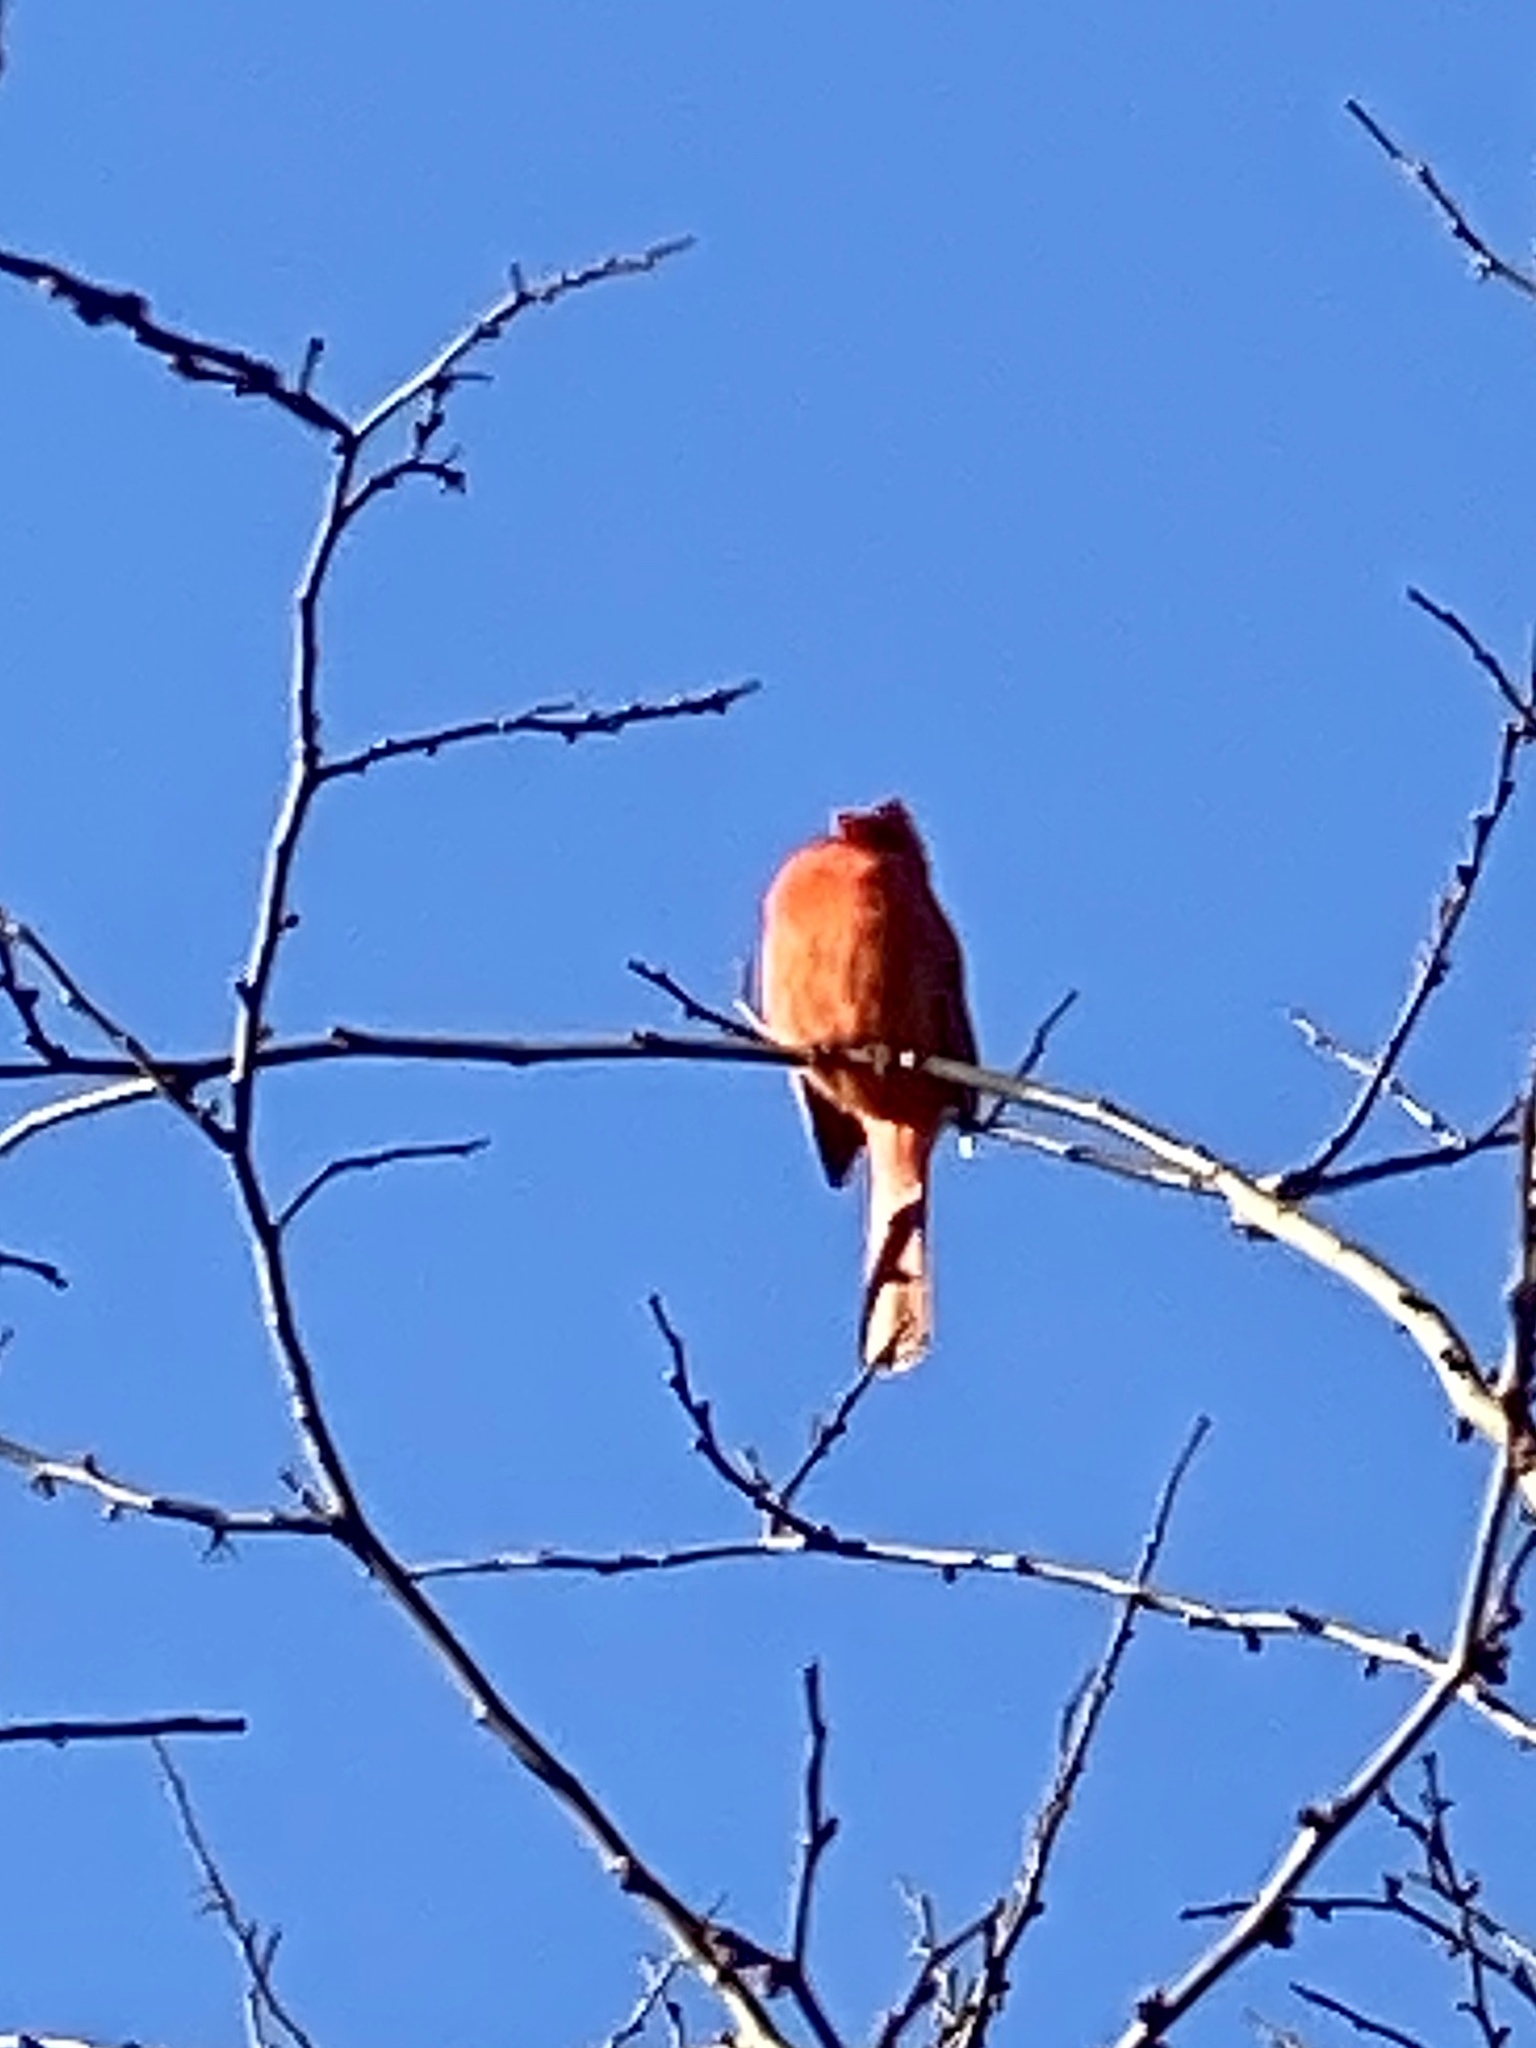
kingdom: Animalia
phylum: Chordata
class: Aves
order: Passeriformes
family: Cardinalidae
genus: Cardinalis
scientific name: Cardinalis cardinalis
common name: Northern cardinal
